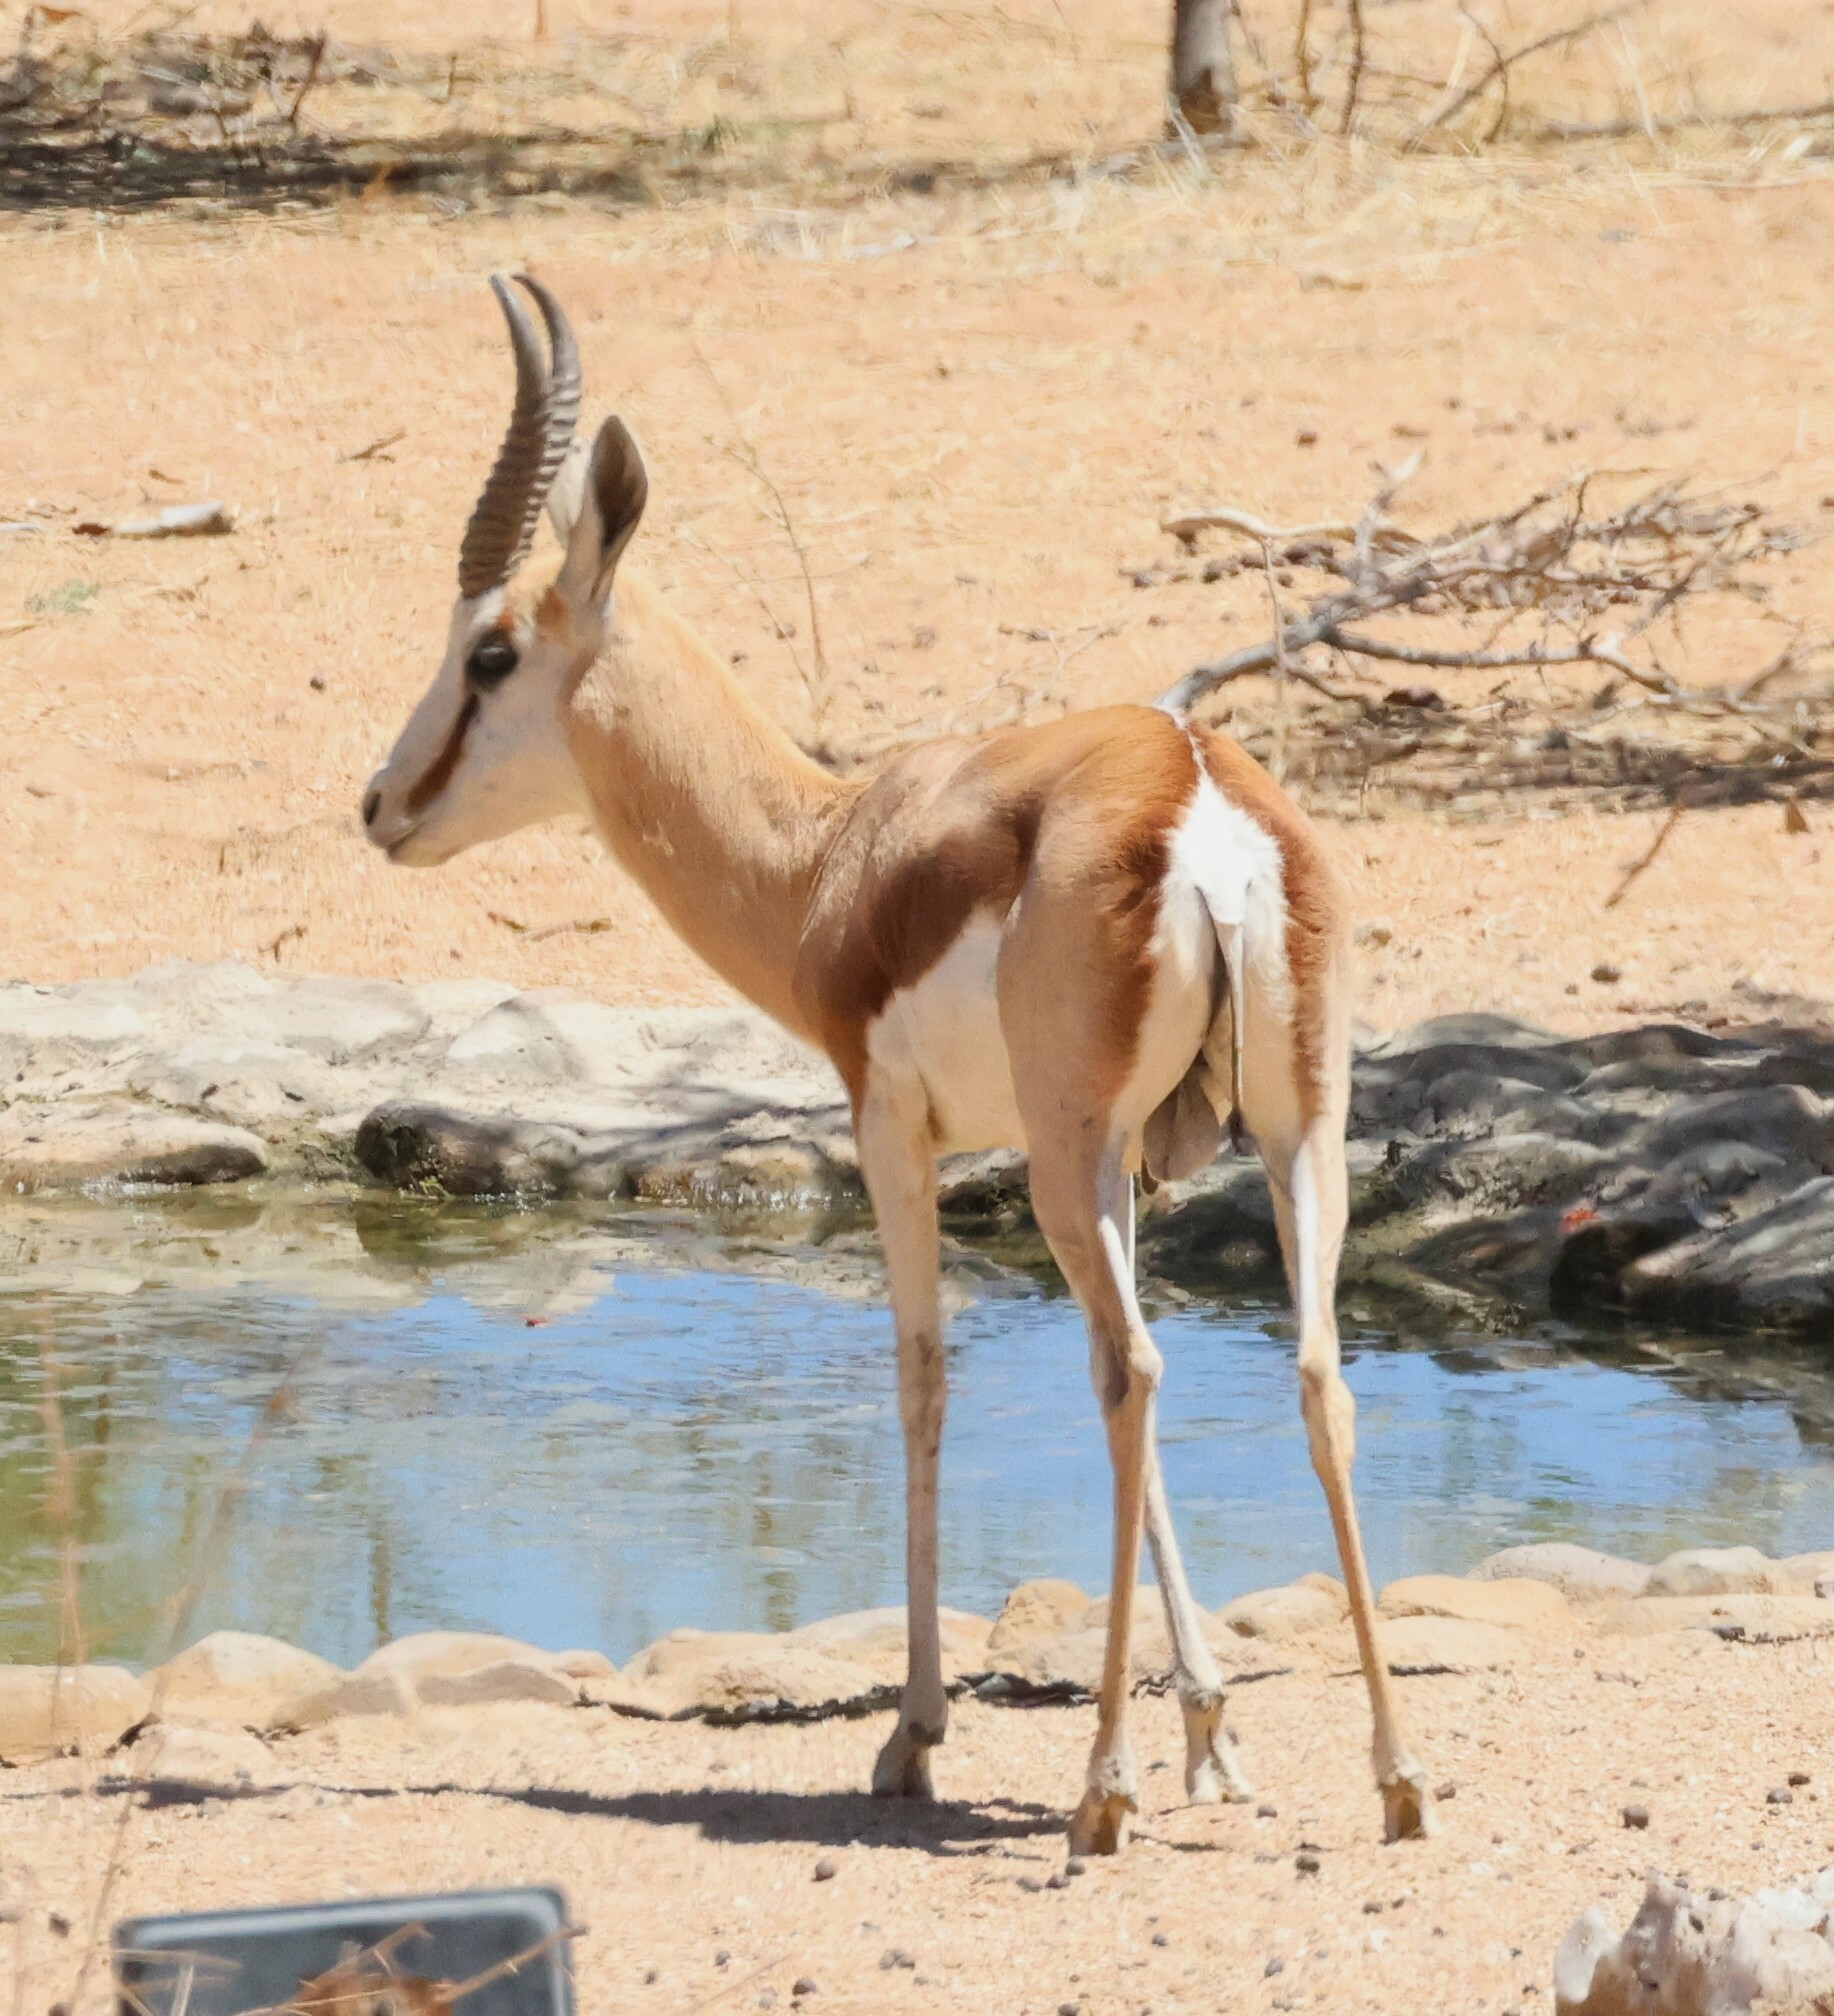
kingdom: Animalia
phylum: Chordata
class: Mammalia
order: Artiodactyla
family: Bovidae
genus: Antidorcas
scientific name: Antidorcas marsupialis
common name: Springbok
